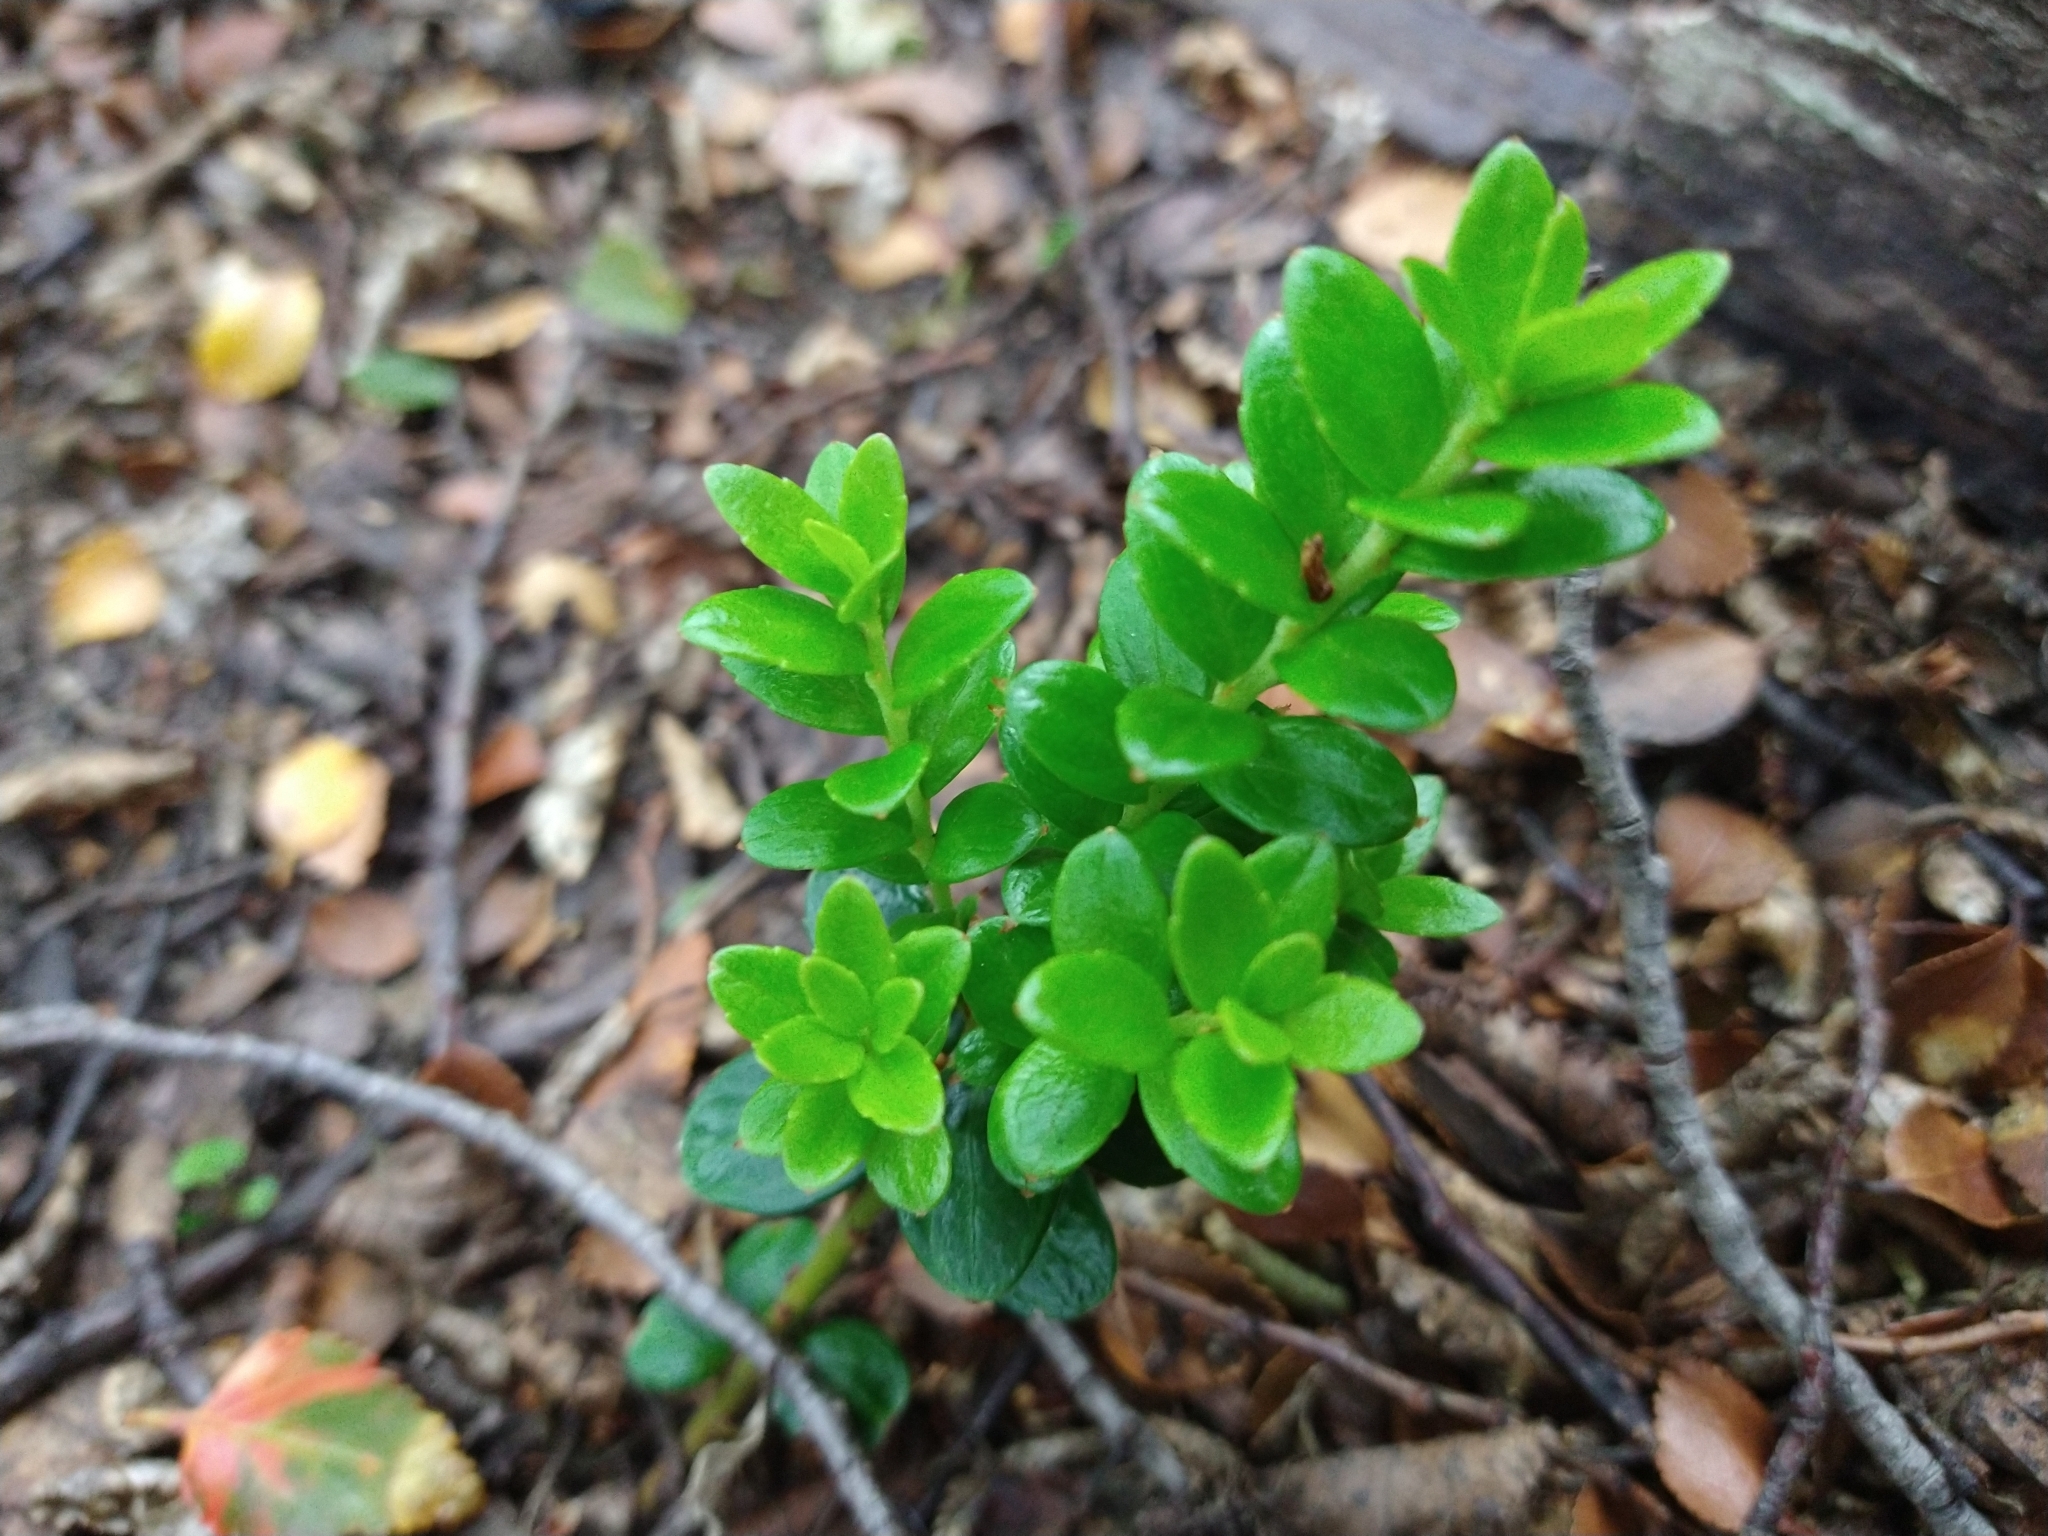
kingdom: Plantae
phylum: Tracheophyta
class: Magnoliopsida
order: Celastrales
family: Celastraceae
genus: Maytenus
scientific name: Maytenus disticha
